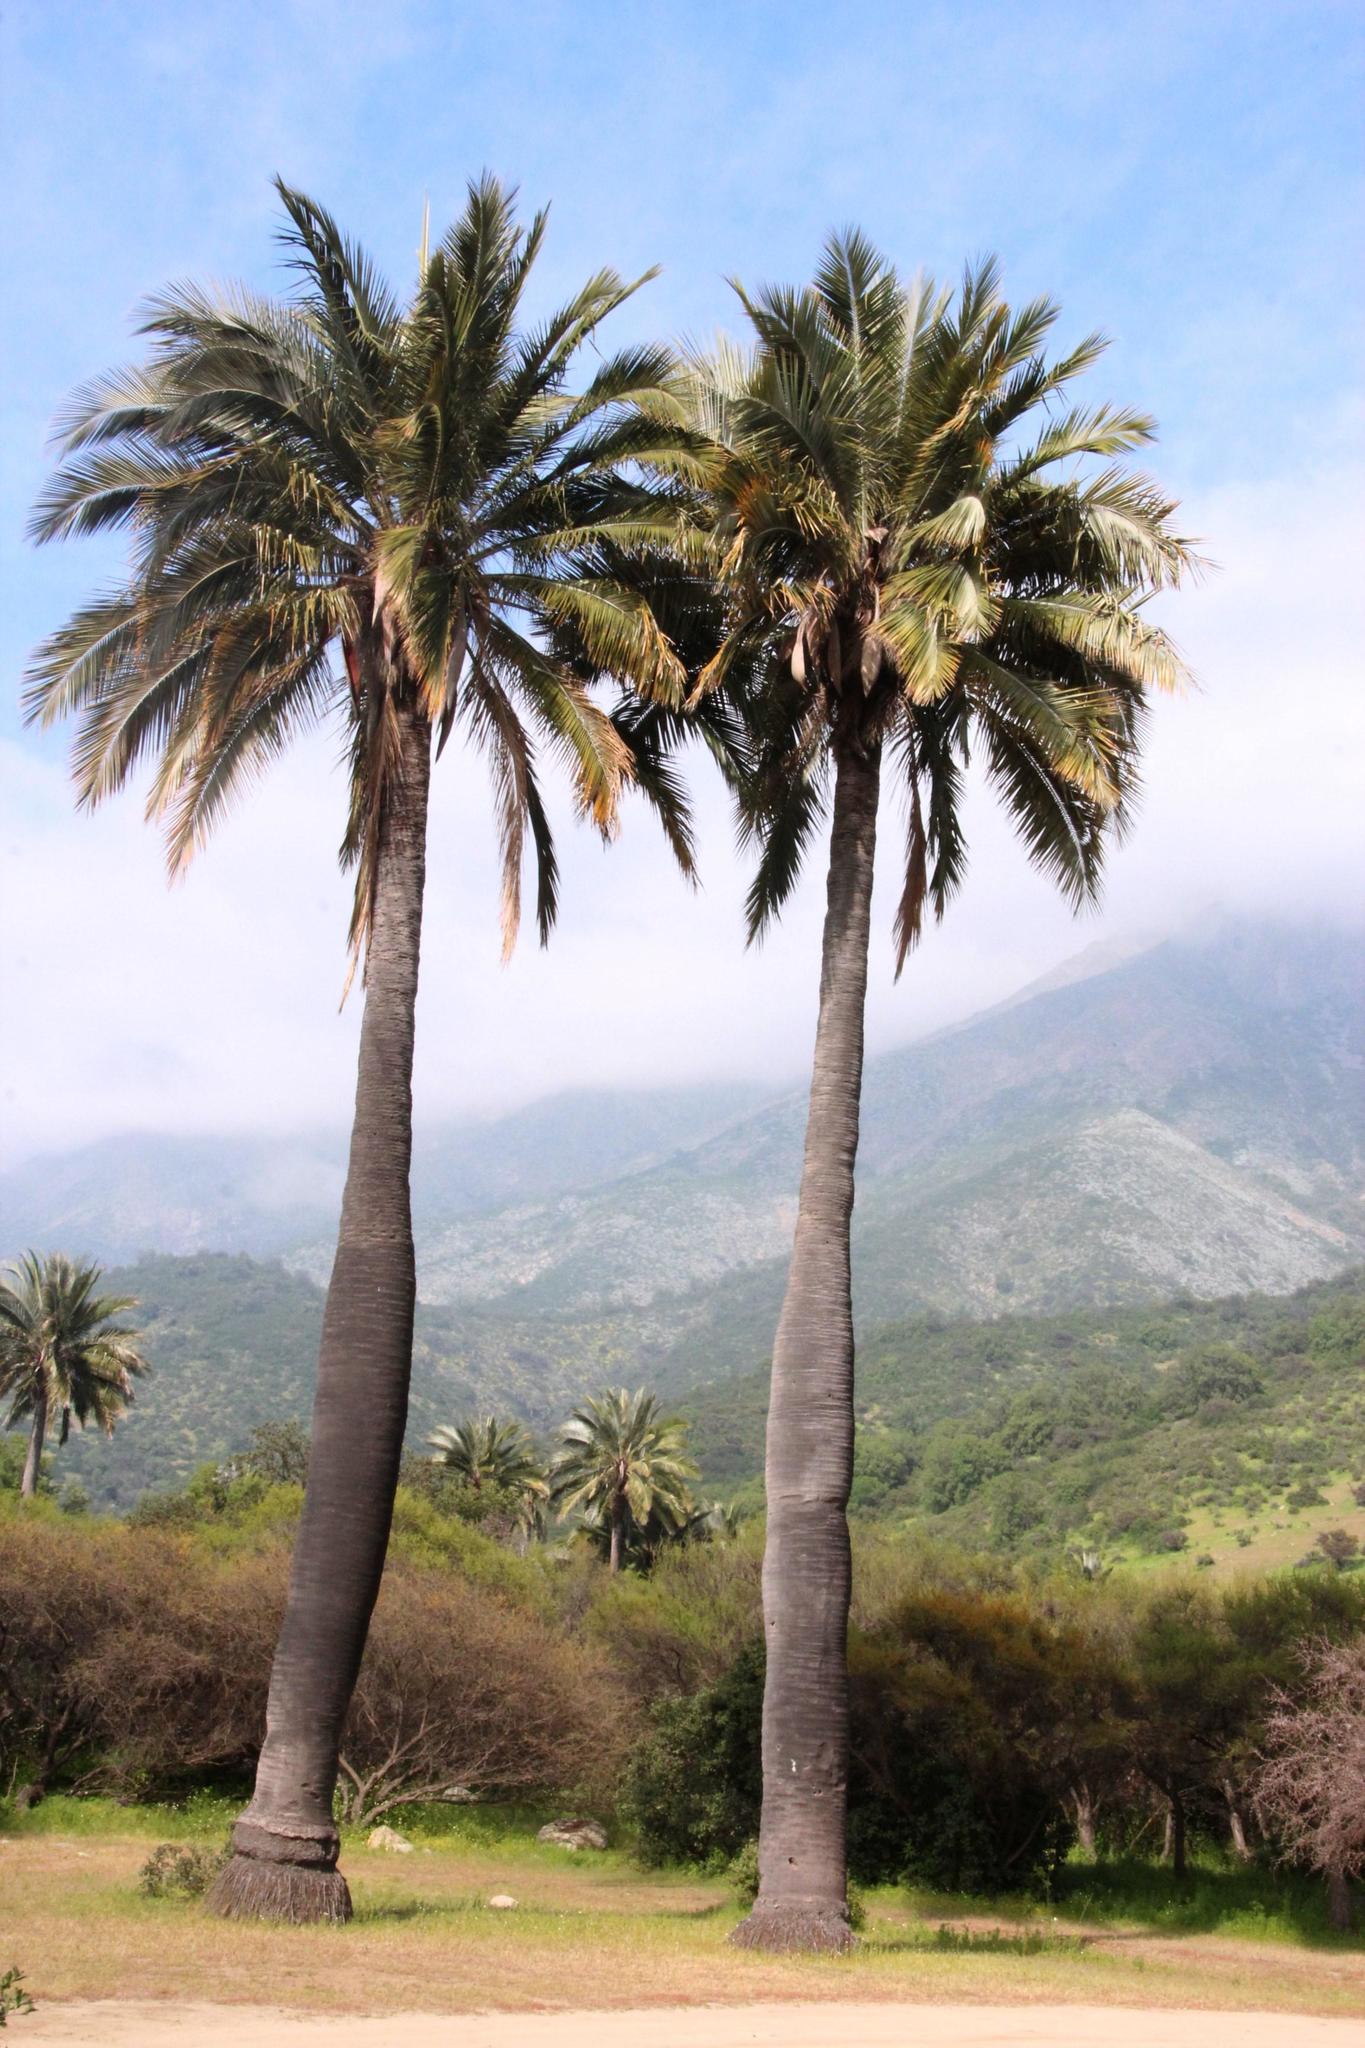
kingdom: Plantae
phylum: Tracheophyta
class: Liliopsida
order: Arecales
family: Arecaceae
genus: Jubaea
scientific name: Jubaea chilensis
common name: Coquito palm
